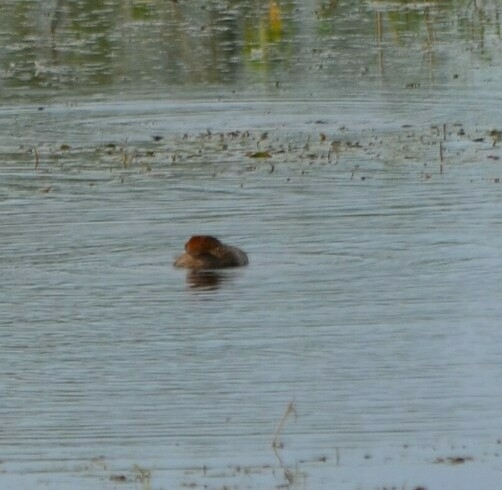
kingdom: Animalia
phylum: Chordata
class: Aves
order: Podicipediformes
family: Podicipedidae
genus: Tachybaptus
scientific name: Tachybaptus ruficollis
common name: Little grebe
